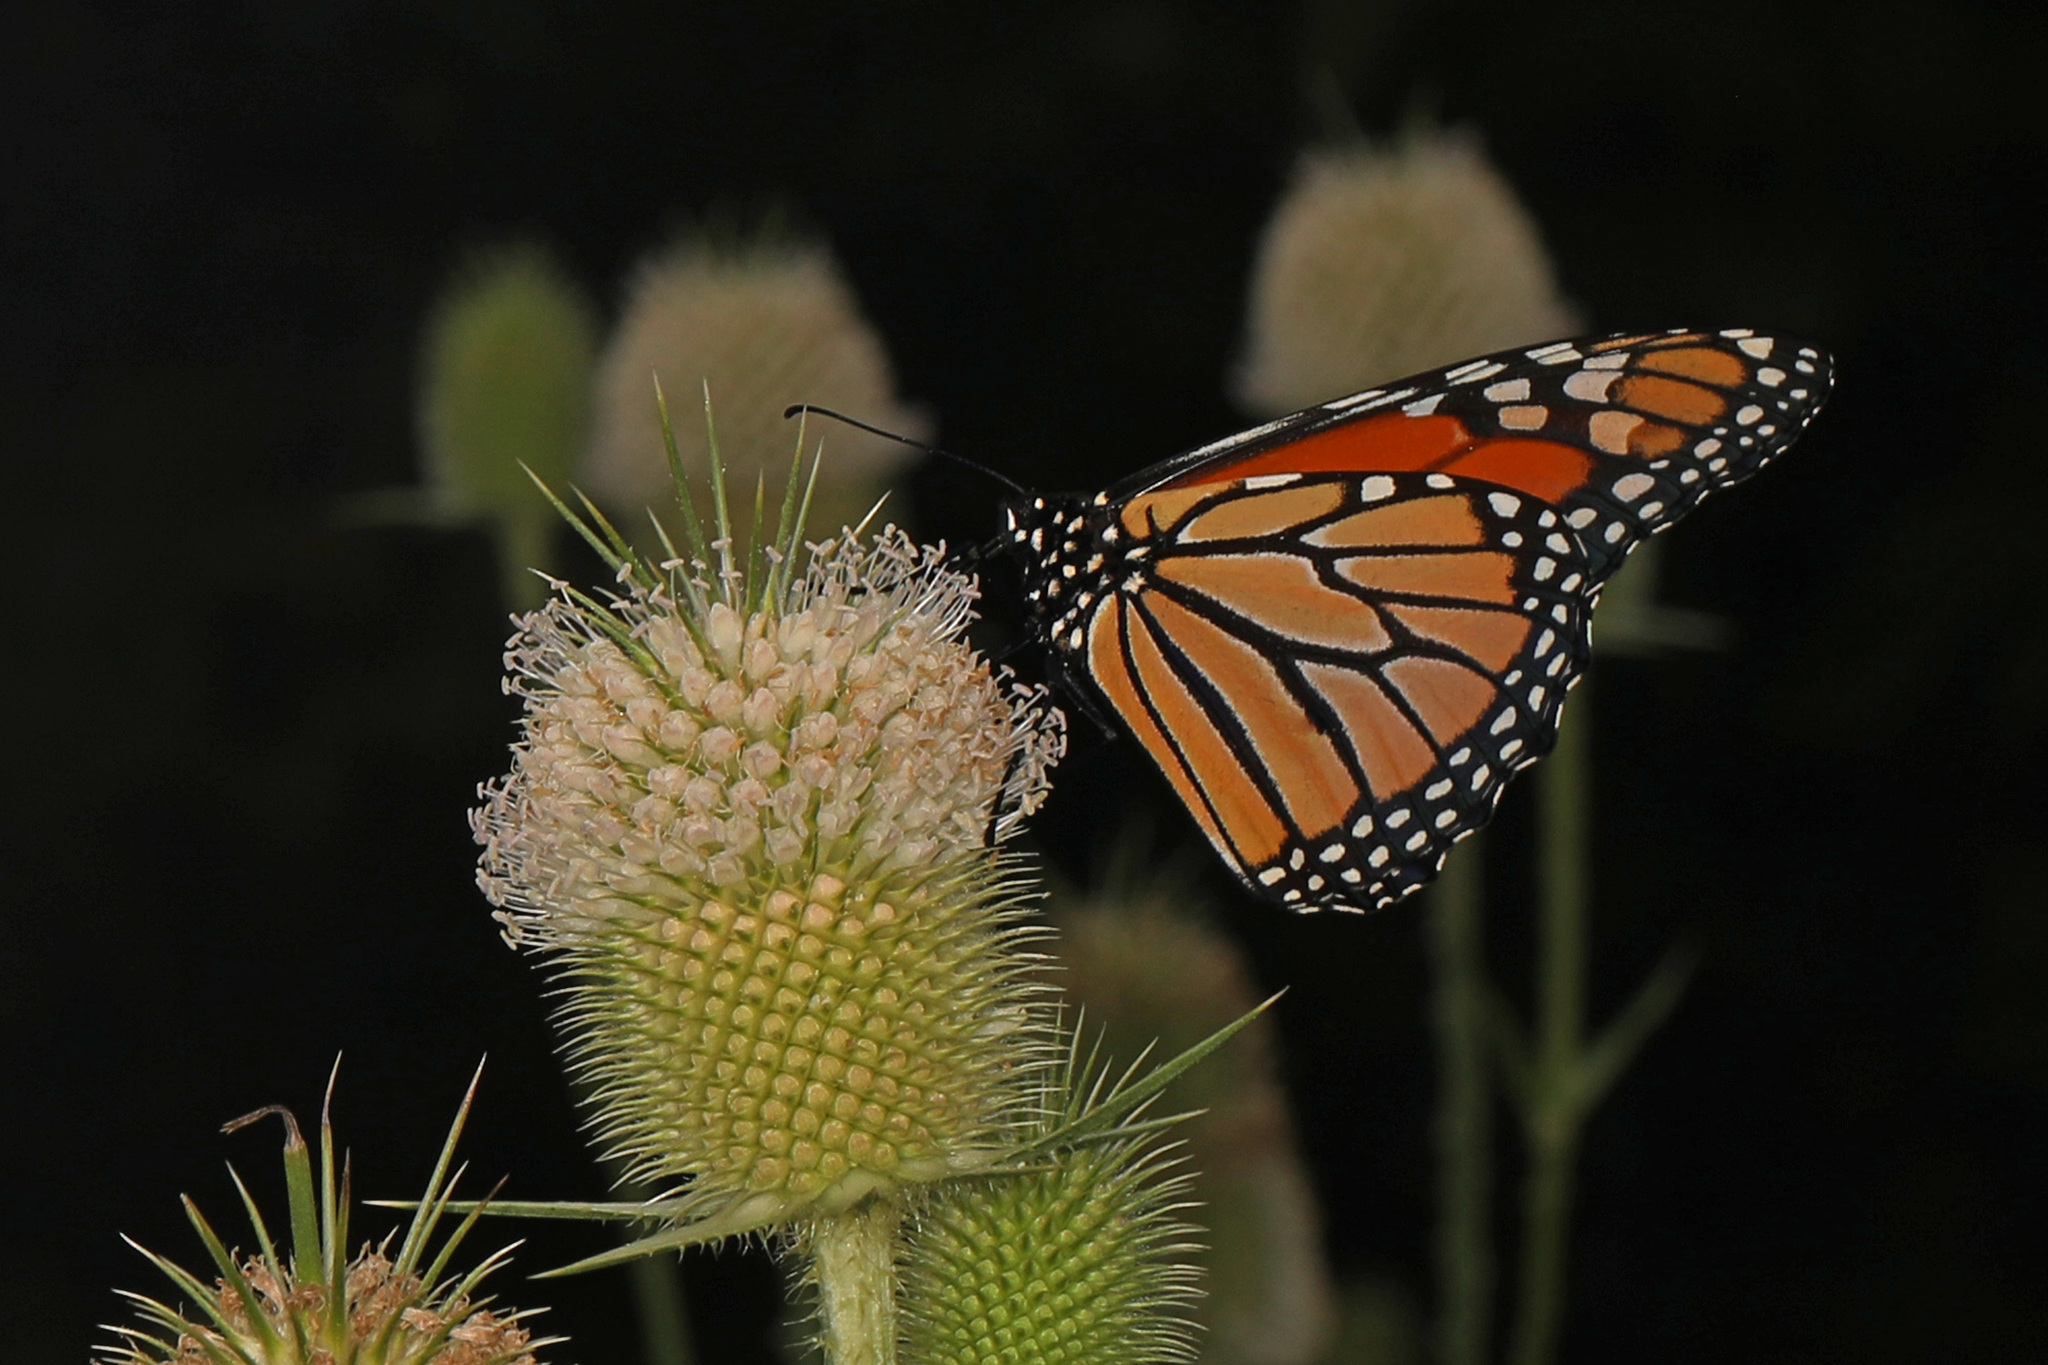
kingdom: Animalia
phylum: Arthropoda
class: Insecta
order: Lepidoptera
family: Nymphalidae
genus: Danaus
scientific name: Danaus plexippus
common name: Monarch
